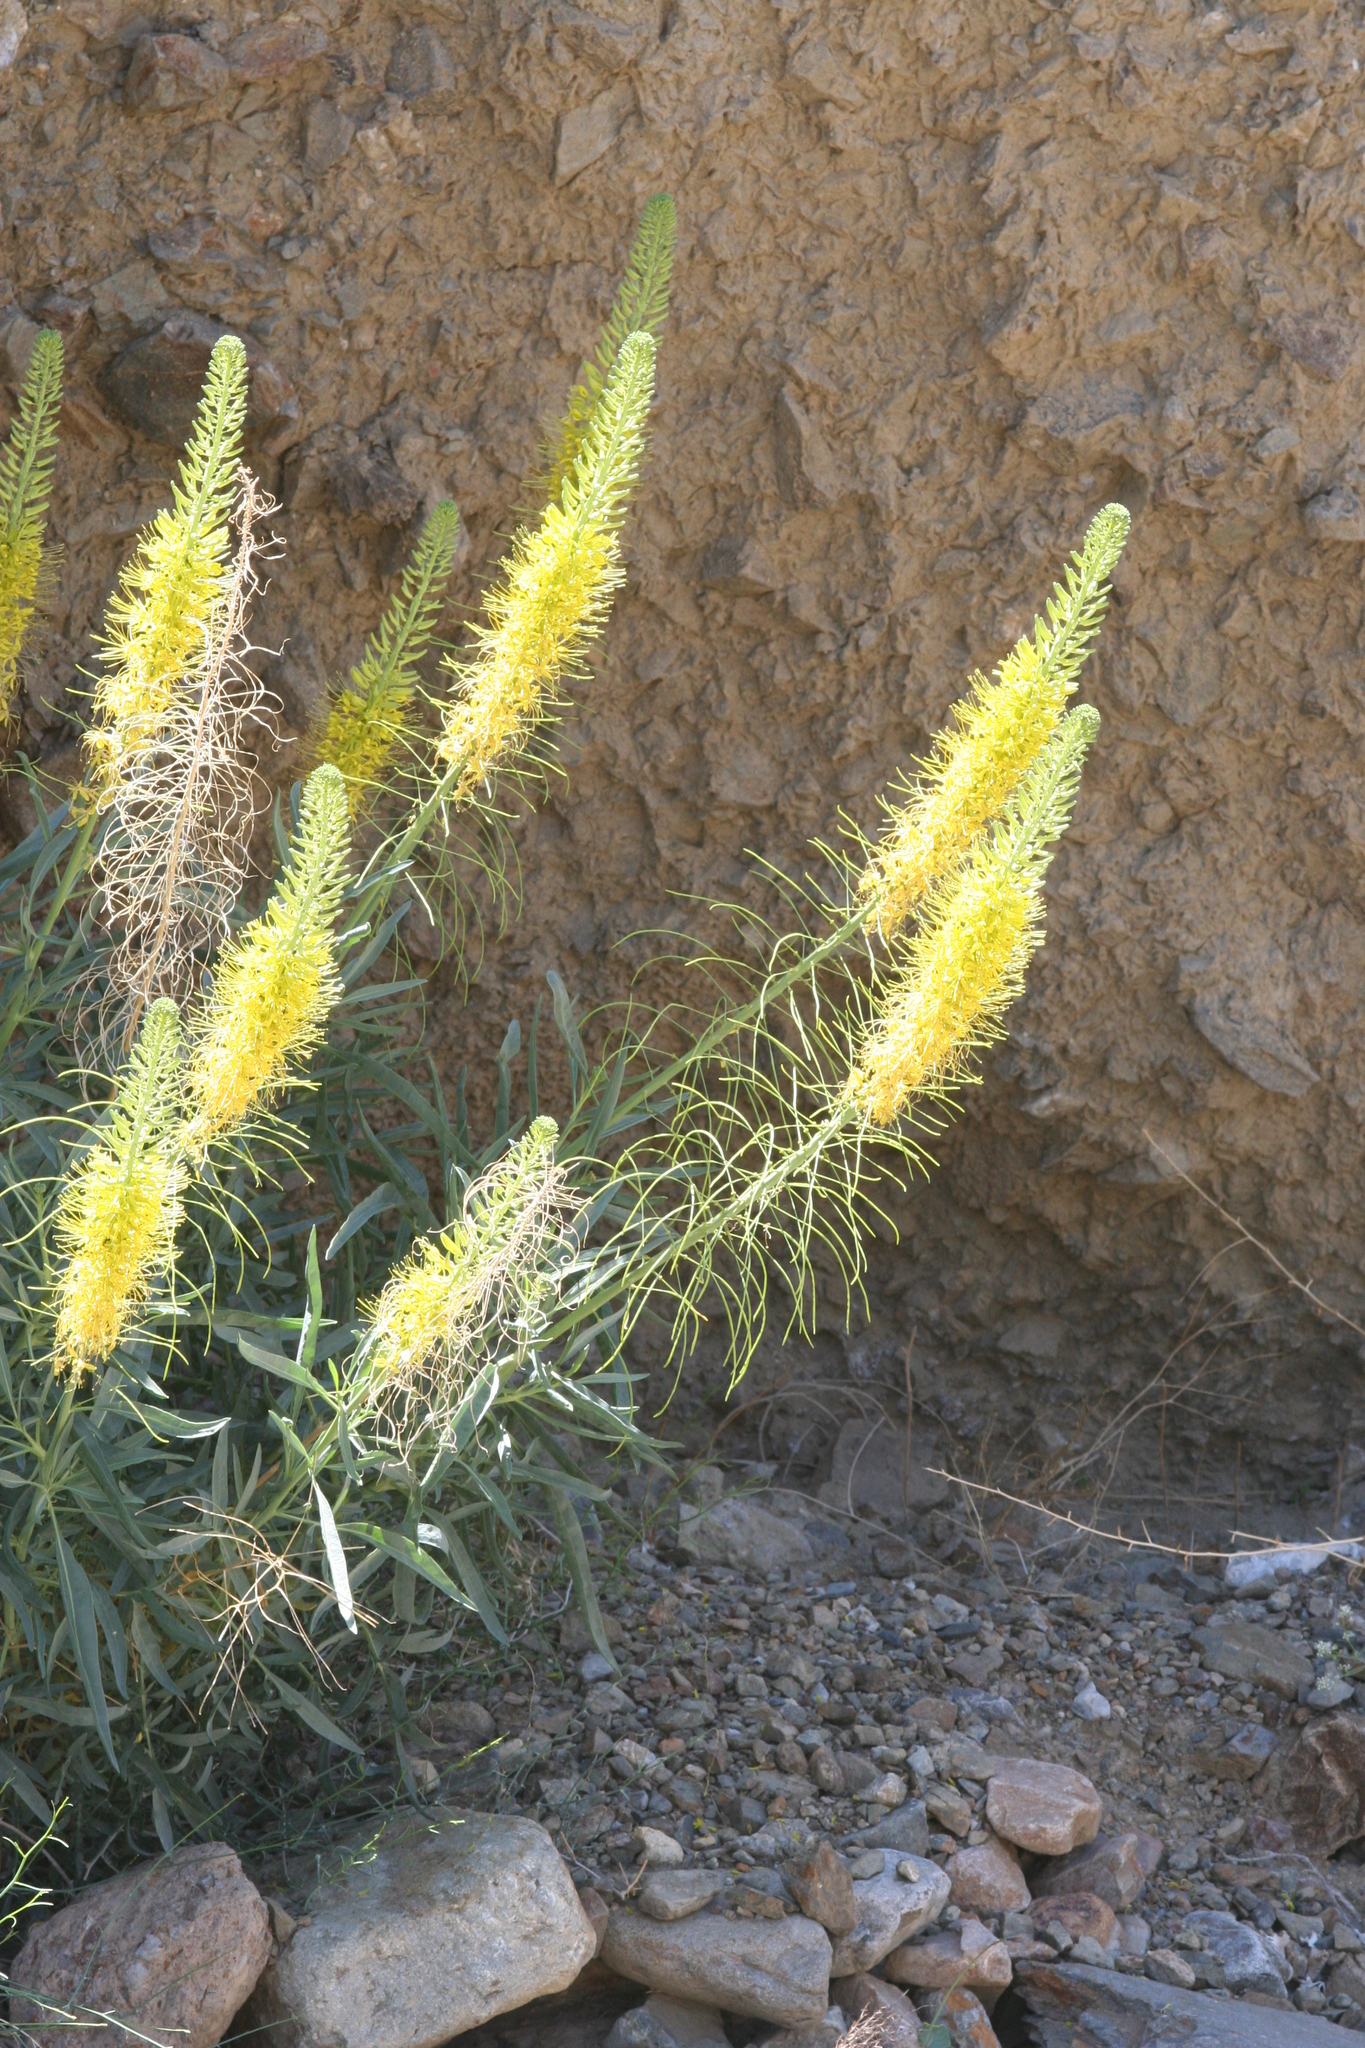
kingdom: Plantae
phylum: Tracheophyta
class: Magnoliopsida
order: Brassicales
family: Brassicaceae
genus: Stanleya
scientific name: Stanleya pinnata
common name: Prince's-plume
